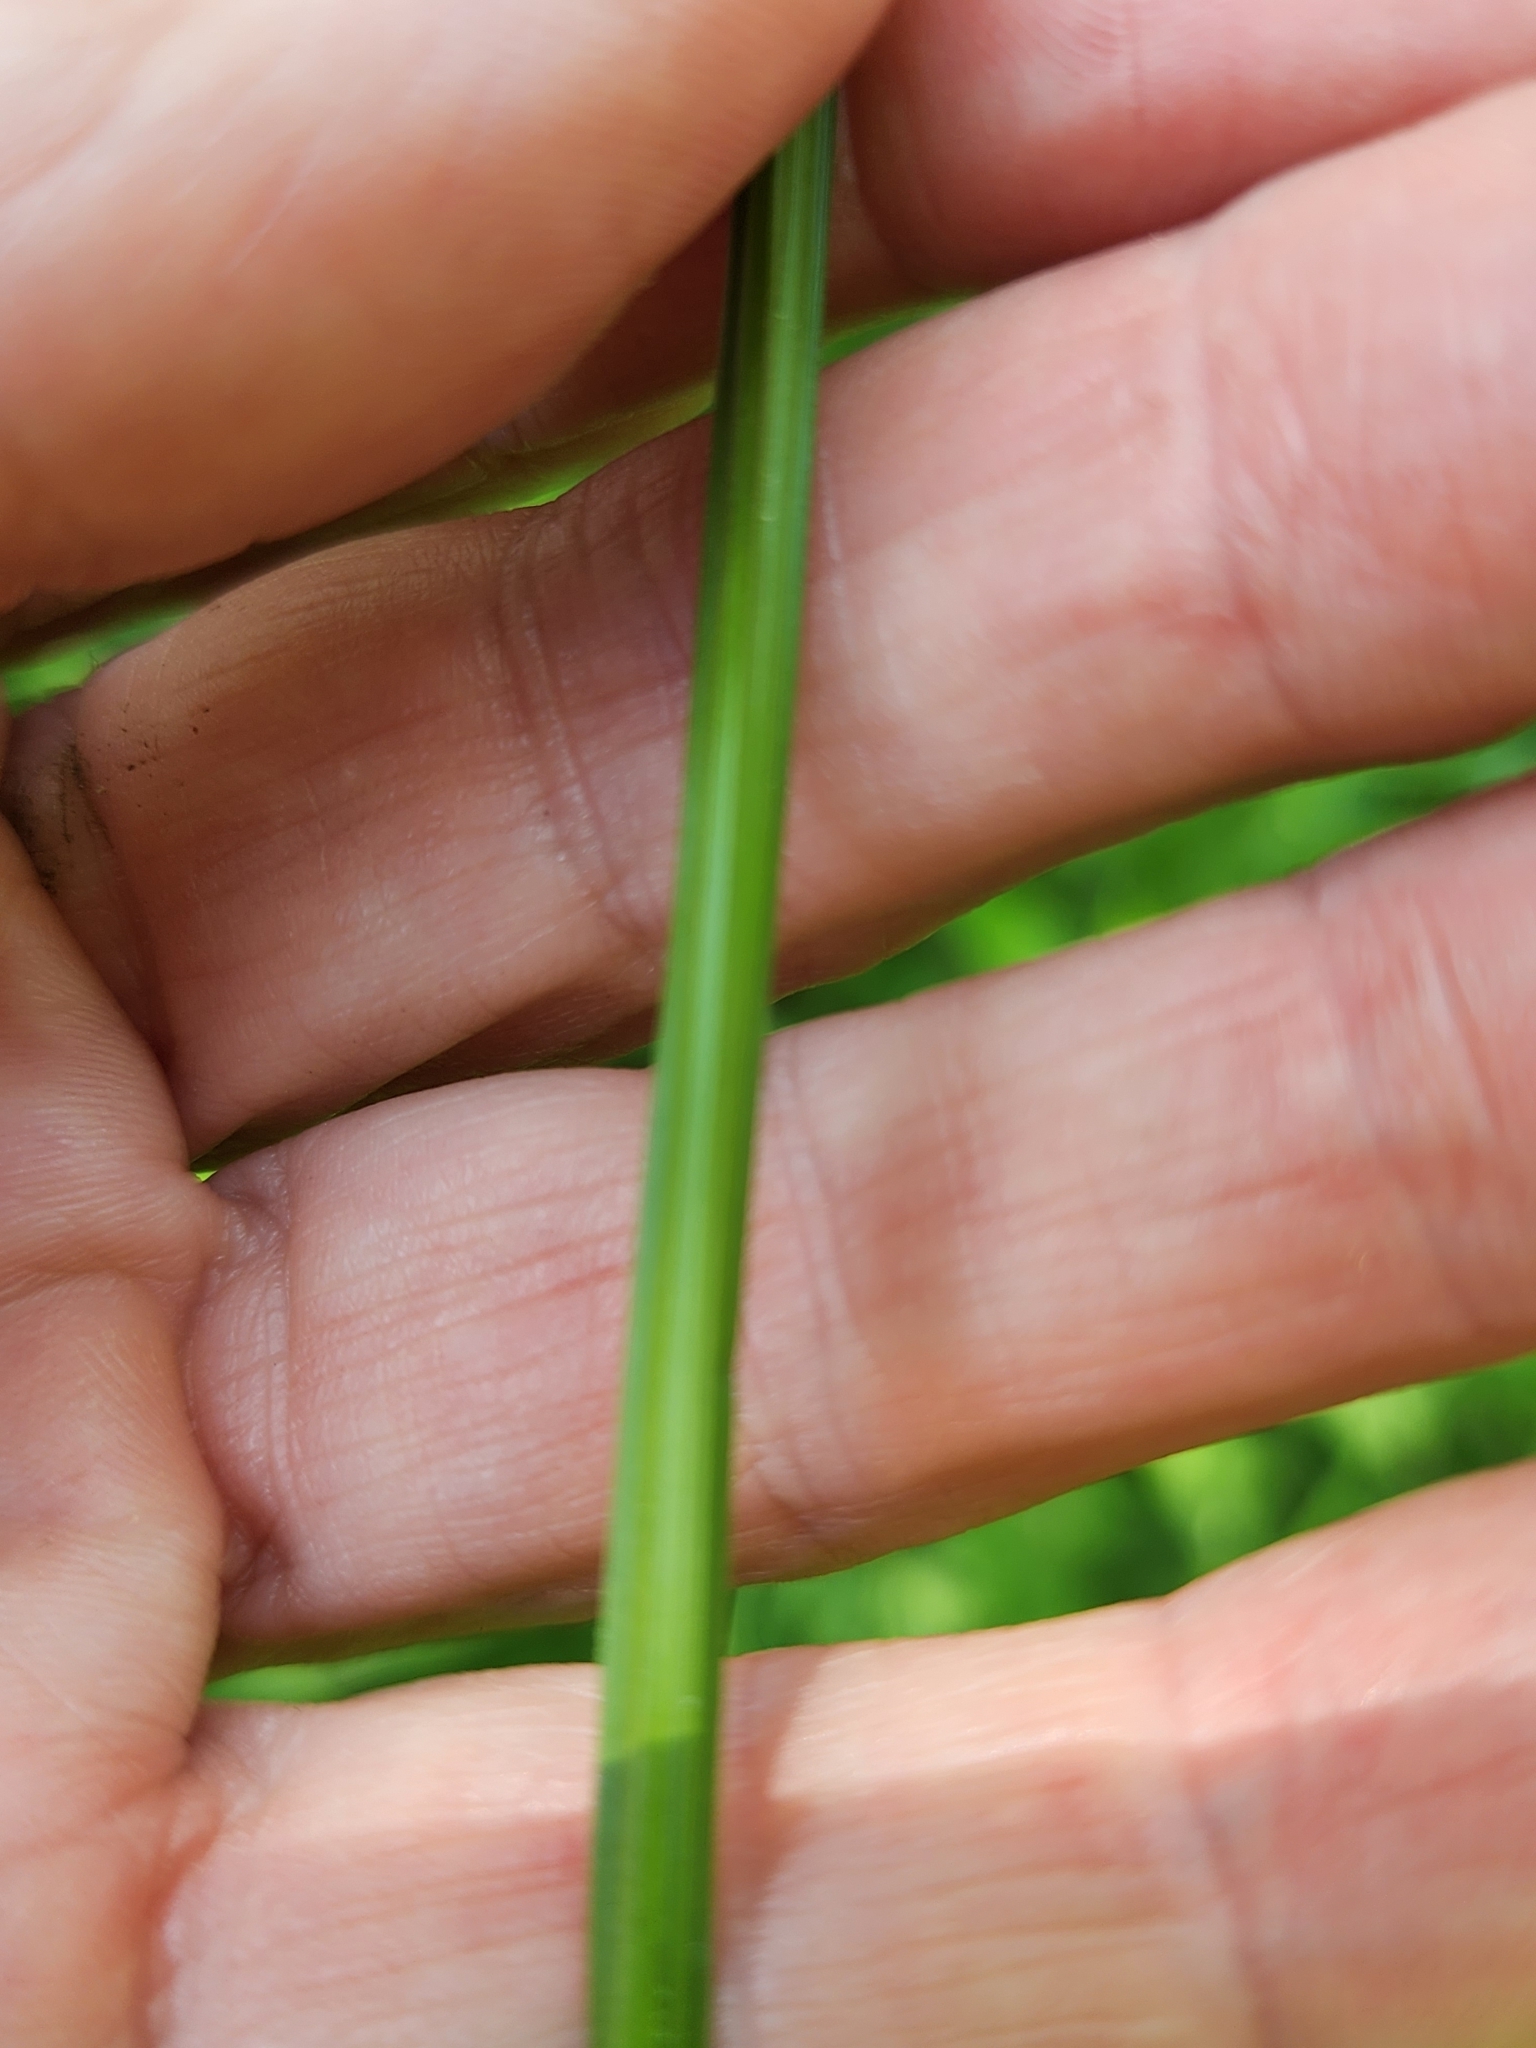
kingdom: Plantae
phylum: Tracheophyta
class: Liliopsida
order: Poales
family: Cyperaceae
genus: Carex
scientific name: Carex stipata
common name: Awl-fruited sedge
